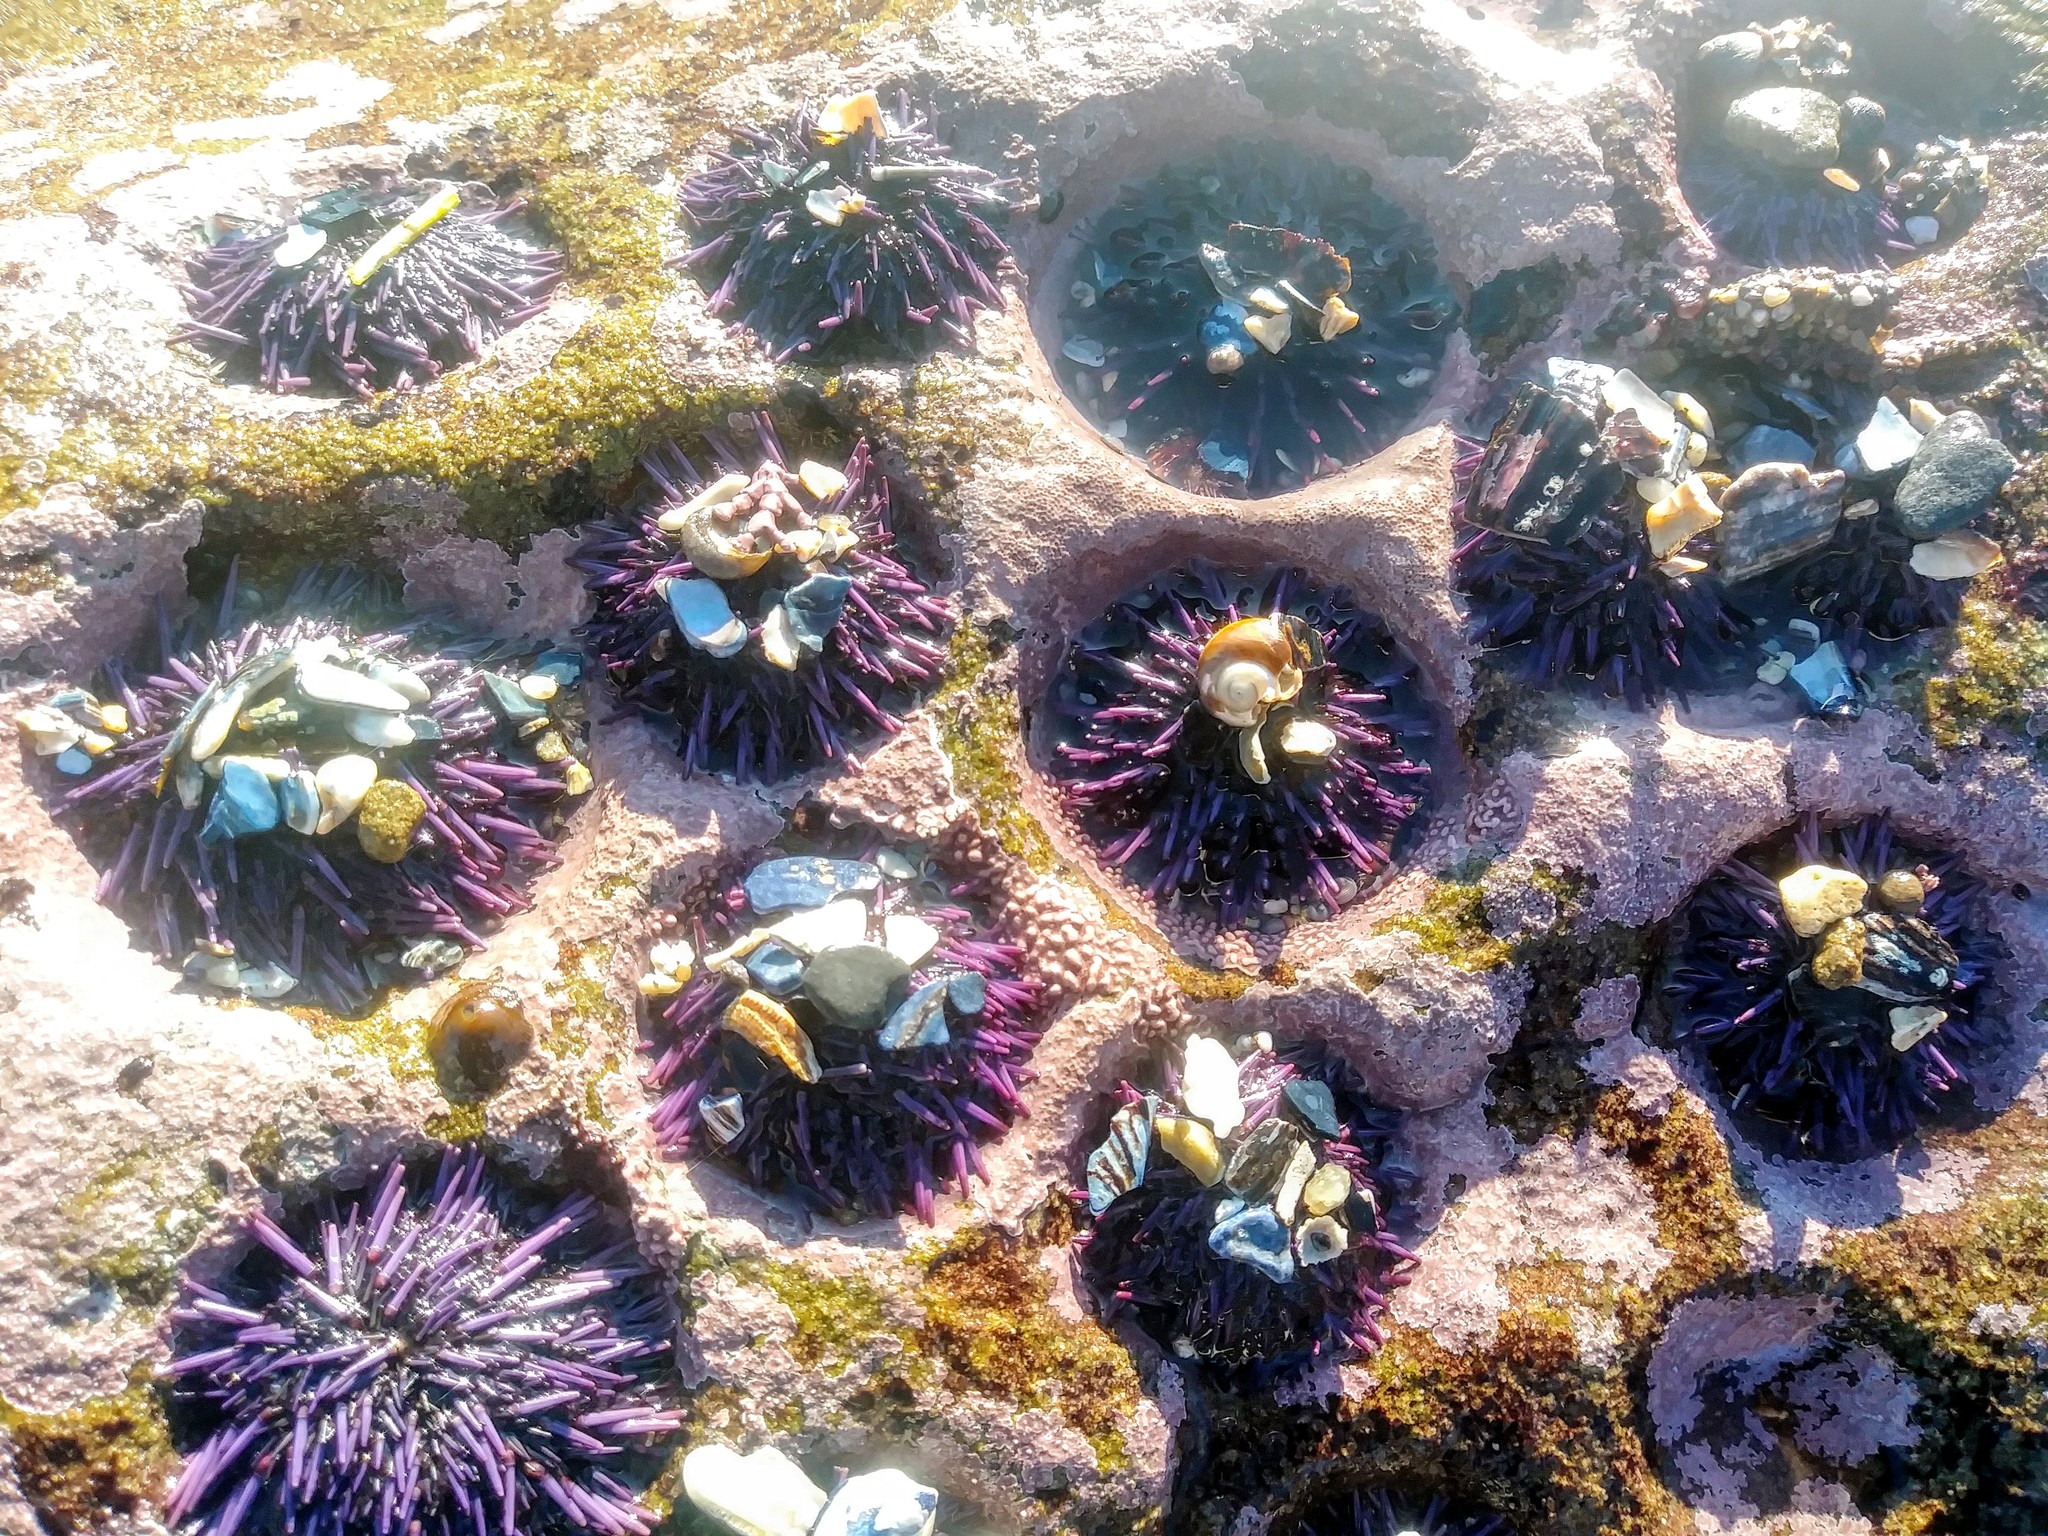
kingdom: Animalia
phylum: Echinodermata
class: Echinoidea
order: Camarodonta
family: Strongylocentrotidae
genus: Strongylocentrotus
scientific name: Strongylocentrotus purpuratus
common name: Purple sea urchin
